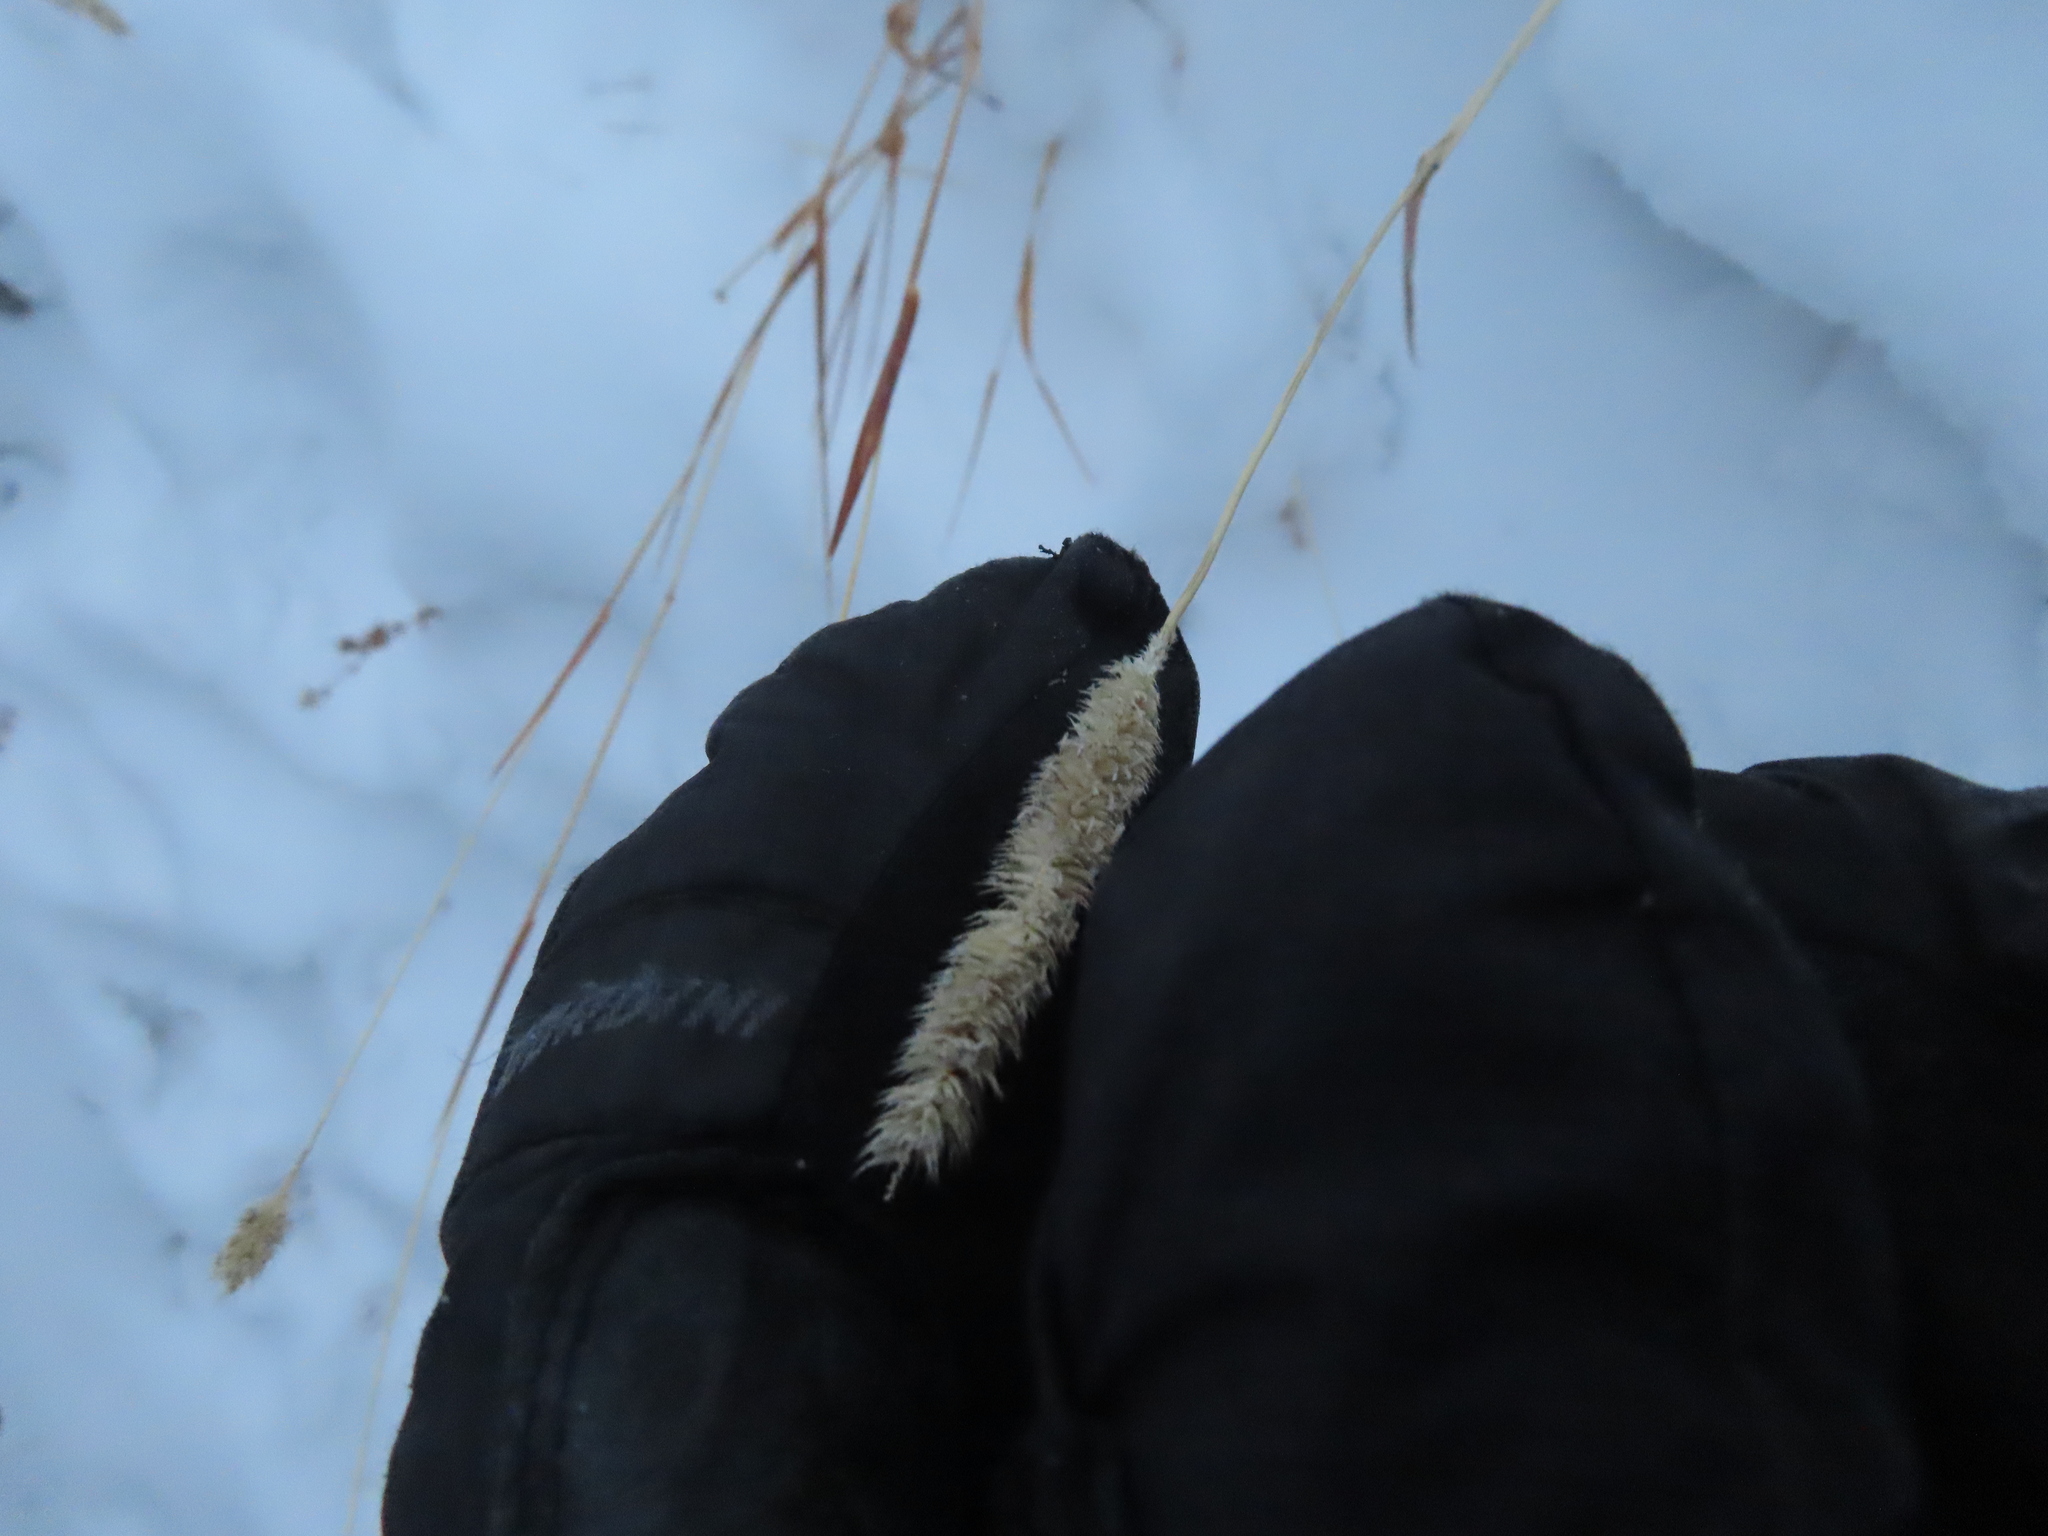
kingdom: Plantae
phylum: Tracheophyta
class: Liliopsida
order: Poales
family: Poaceae
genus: Phleum
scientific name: Phleum pratense
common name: Timothy grass
